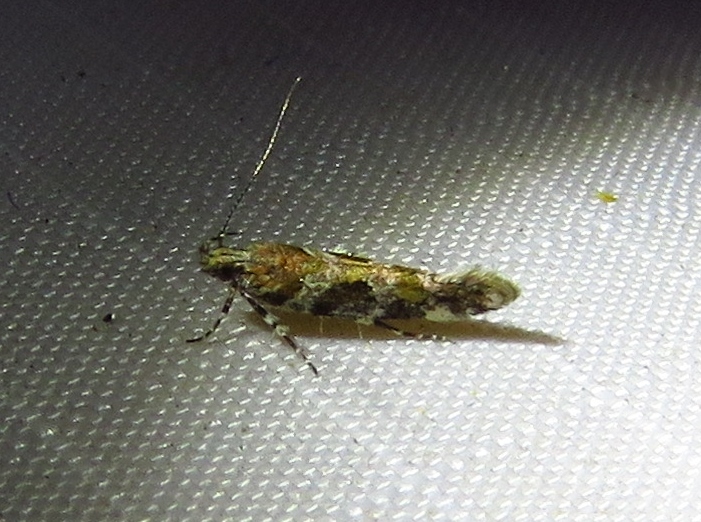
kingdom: Animalia
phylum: Arthropoda
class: Insecta
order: Lepidoptera
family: Gelechiidae
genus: Aristotelia
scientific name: Aristotelia roseosuffusella
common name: Pink-washed aristotelia moth
